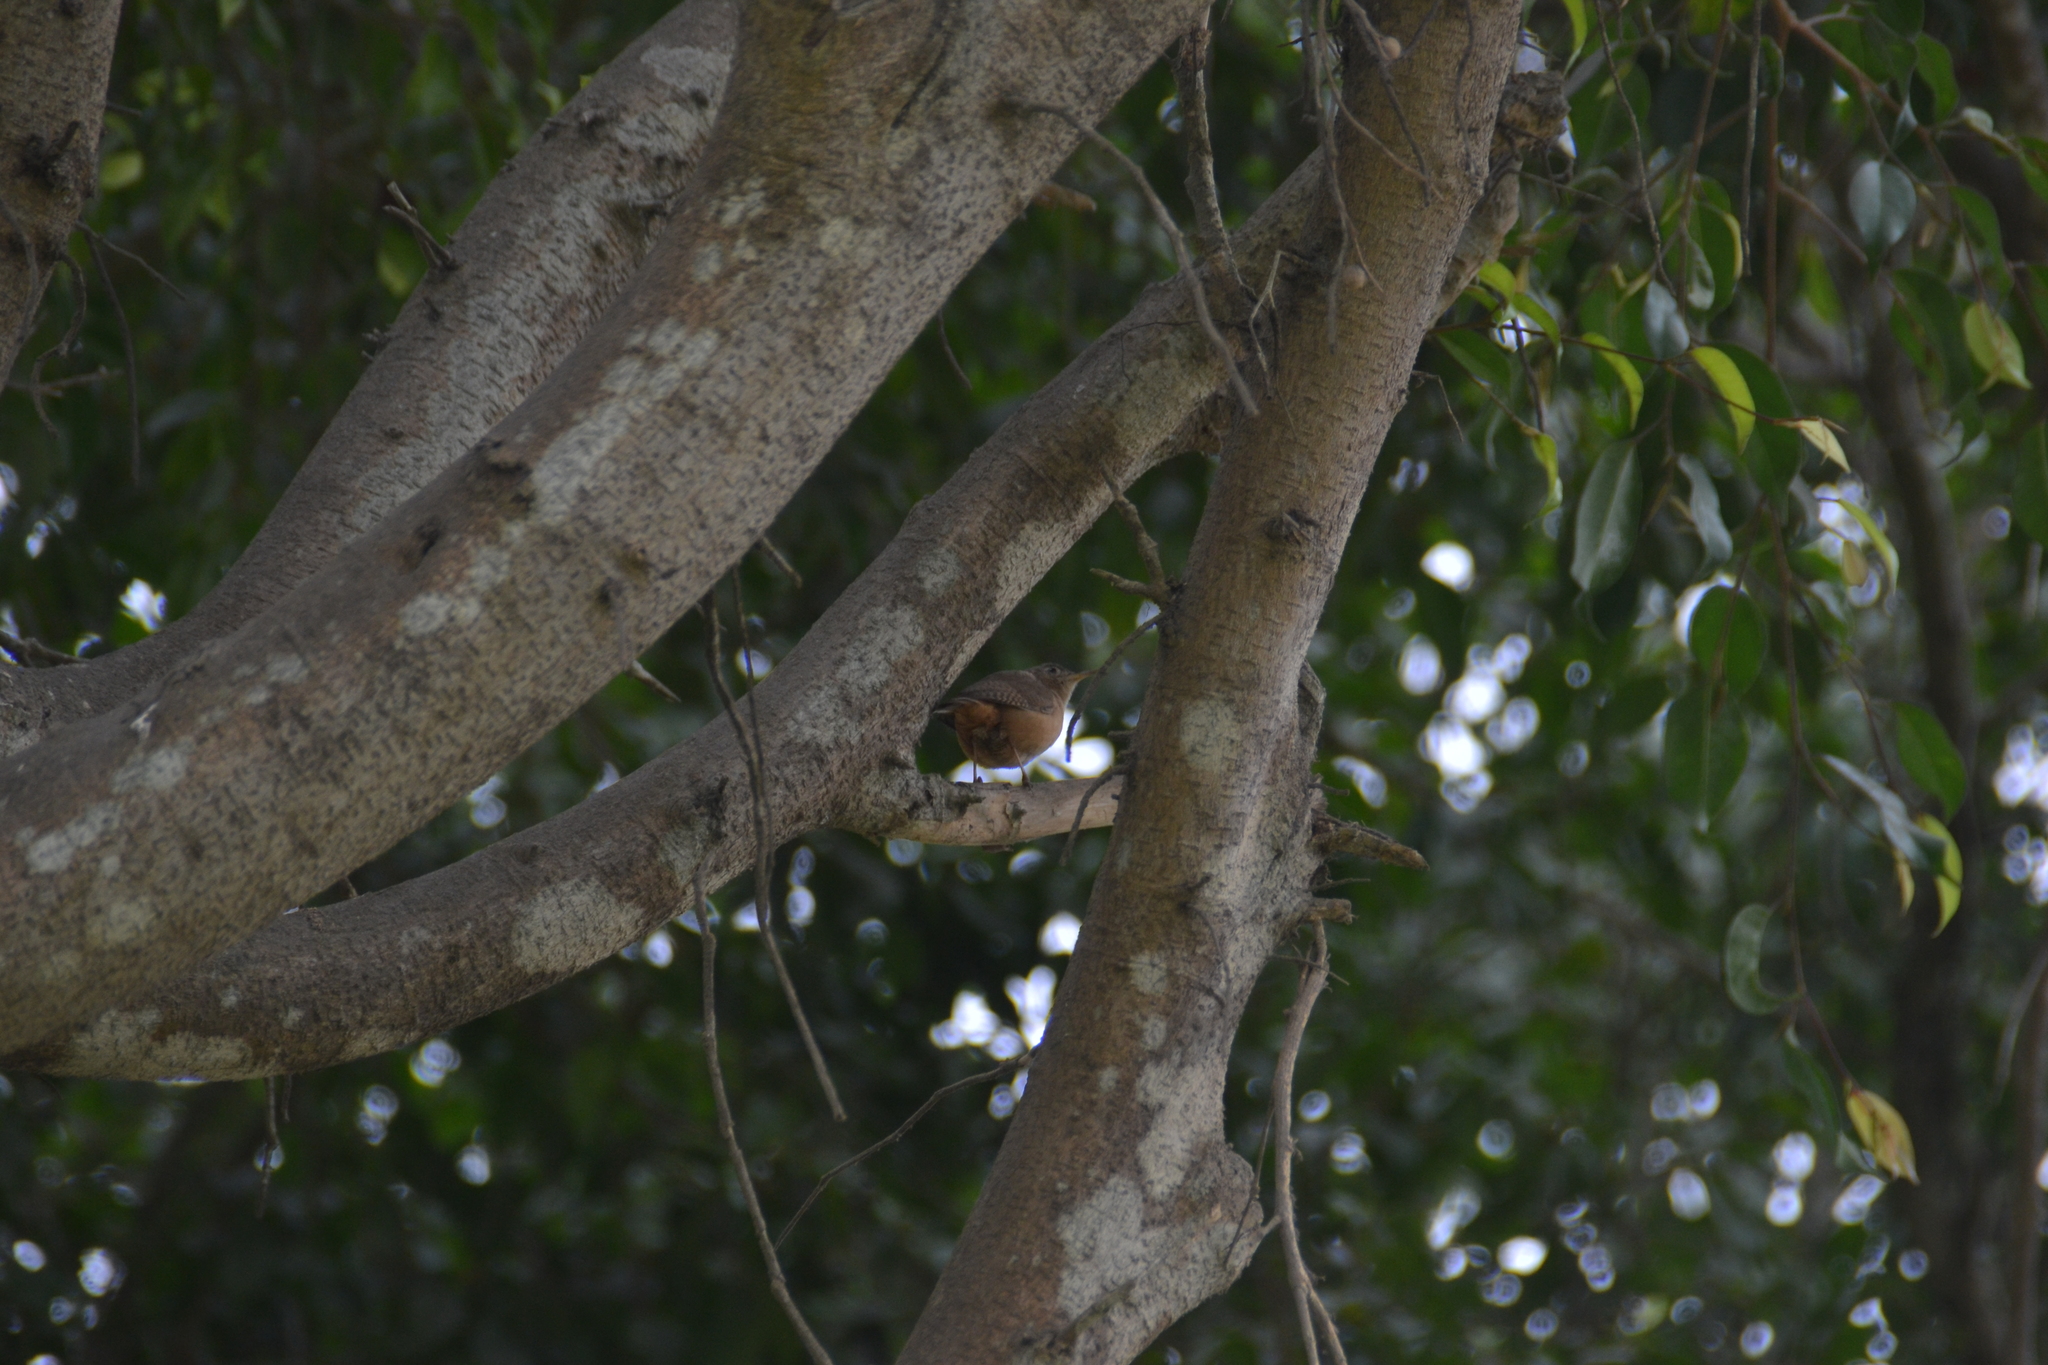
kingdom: Animalia
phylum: Chordata
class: Aves
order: Passeriformes
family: Troglodytidae
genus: Troglodytes
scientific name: Troglodytes aedon
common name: House wren
